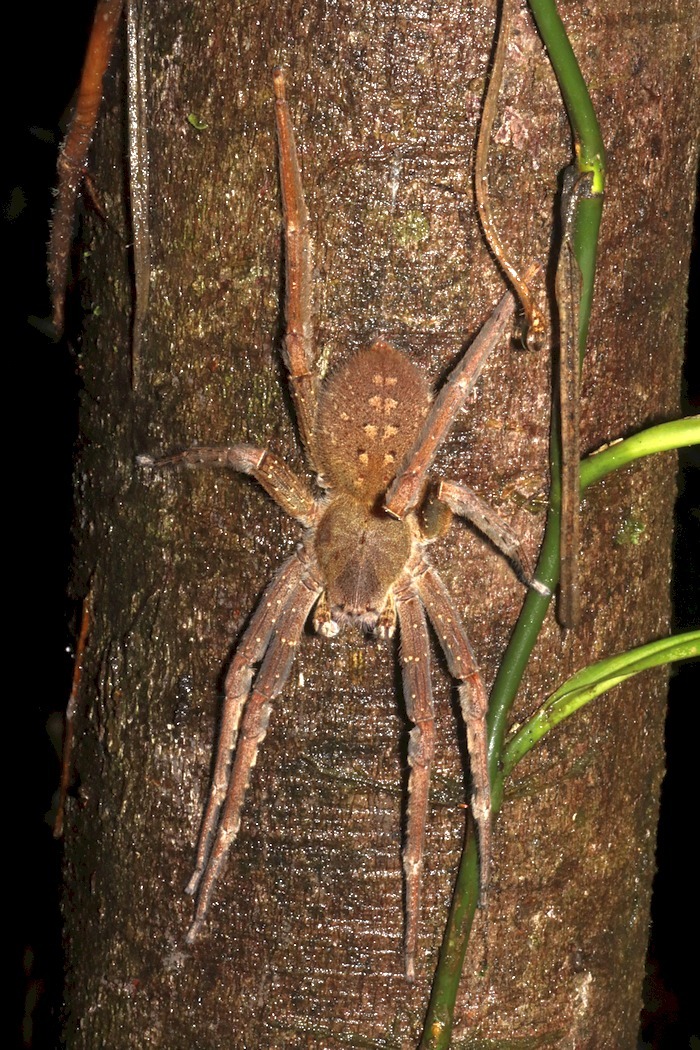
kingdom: Animalia
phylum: Arthropoda
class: Arachnida
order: Araneae
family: Ctenidae
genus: Phoneutria
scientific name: Phoneutria fera
